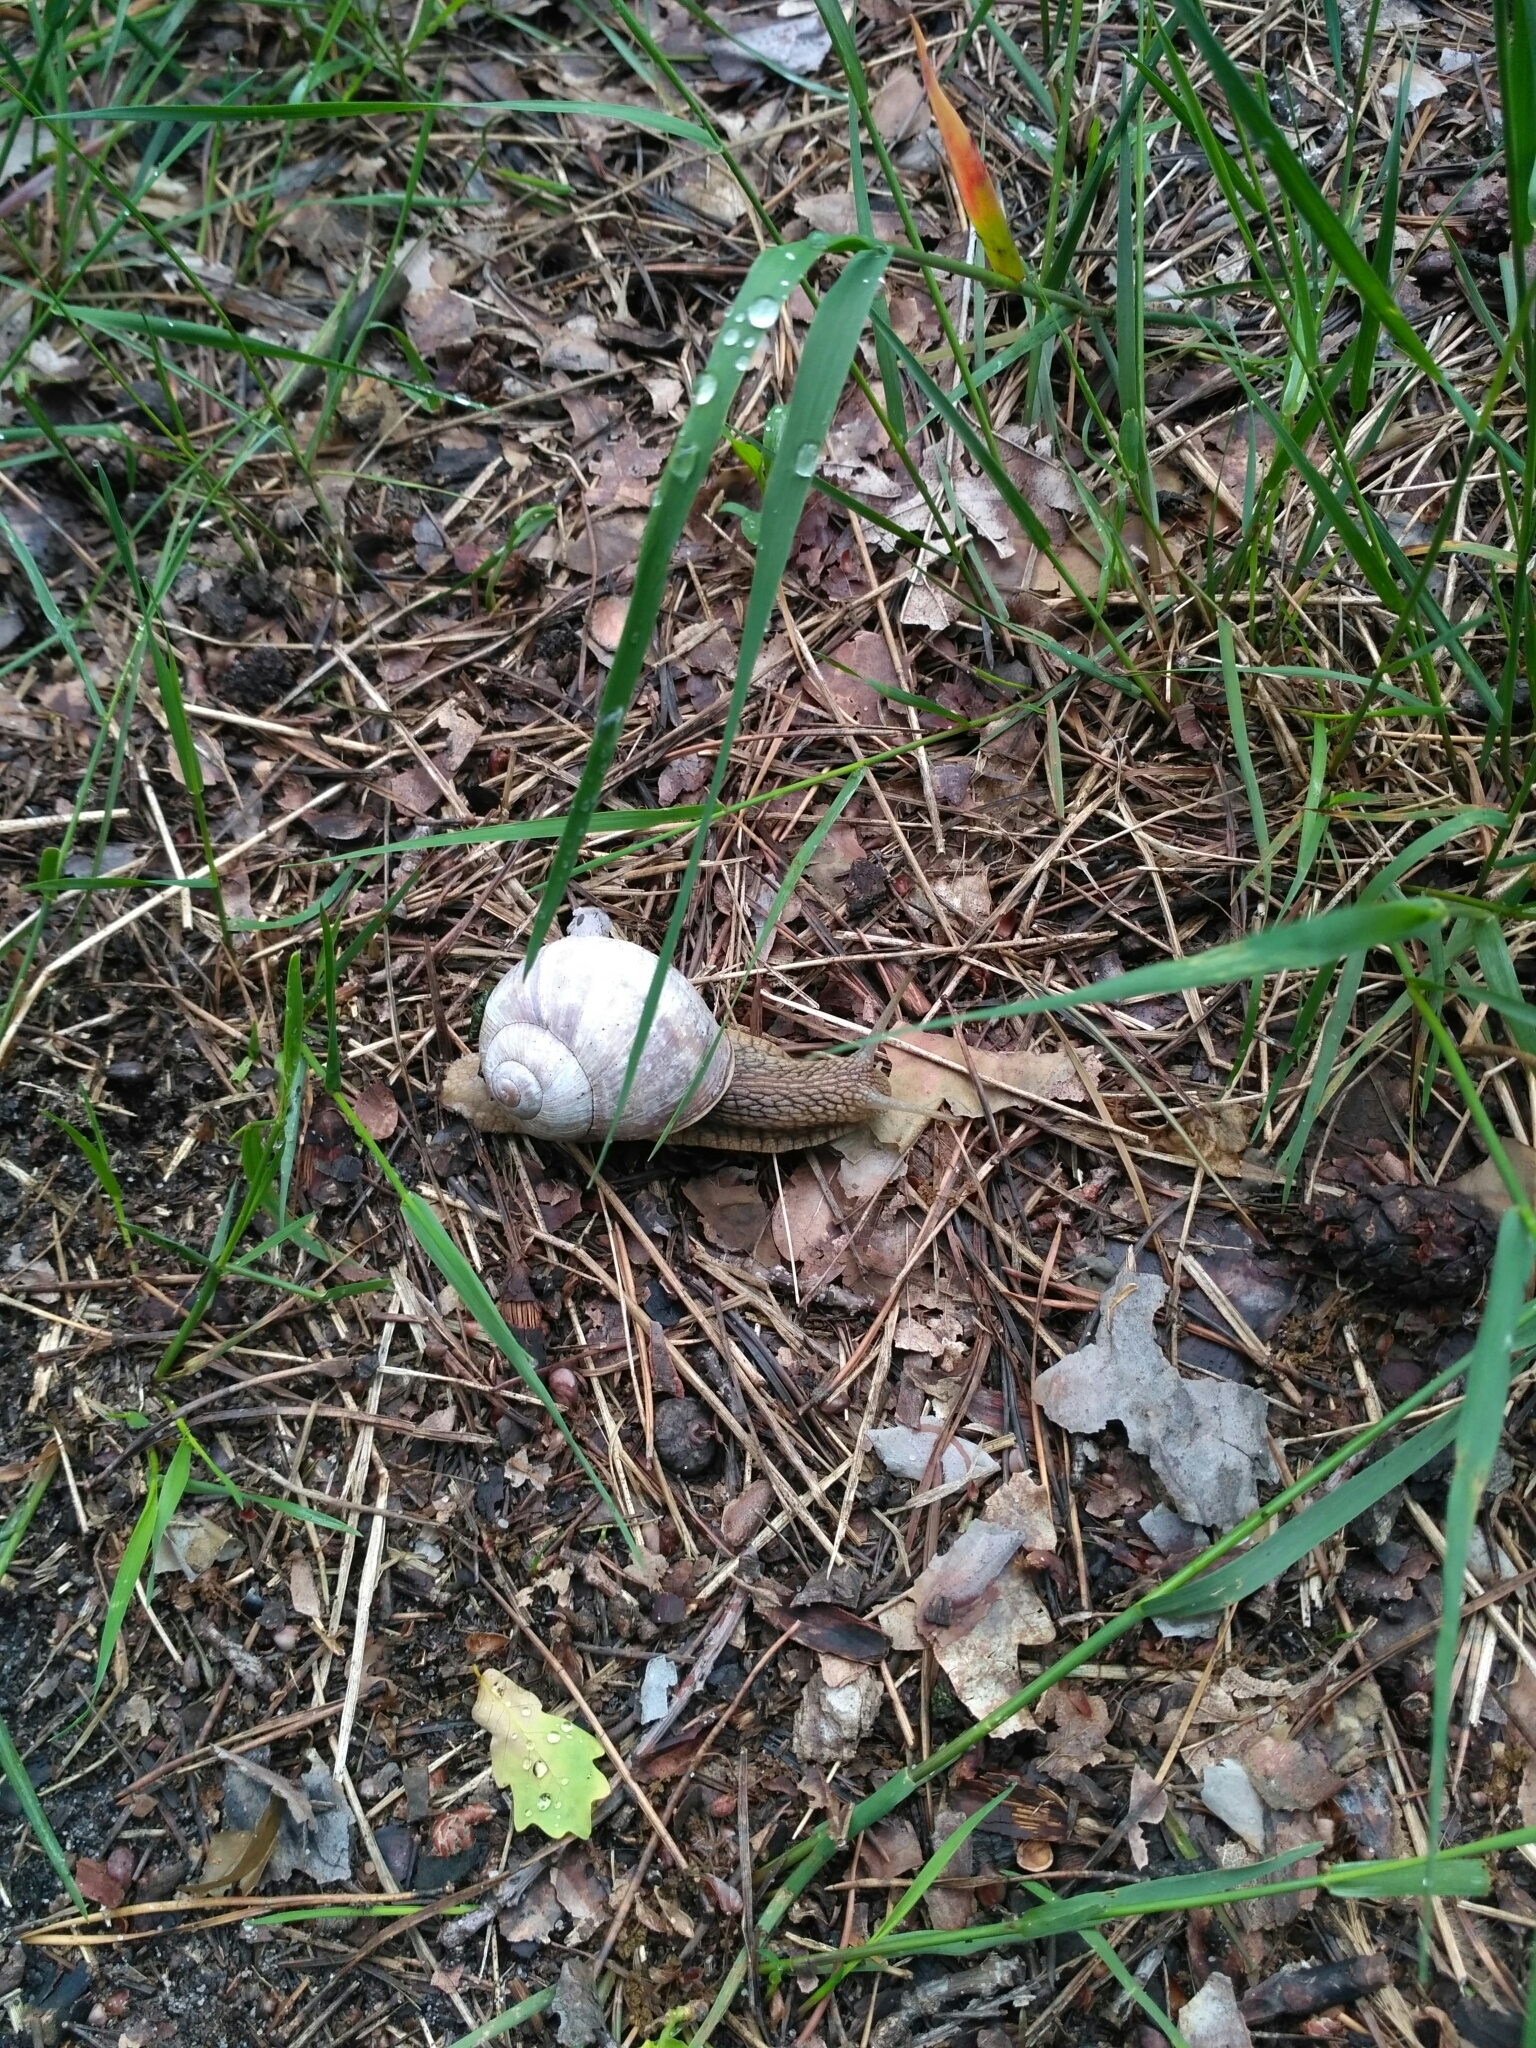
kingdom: Animalia
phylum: Mollusca
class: Gastropoda
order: Stylommatophora
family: Helicidae
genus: Helix
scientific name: Helix pomatia
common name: Roman snail
